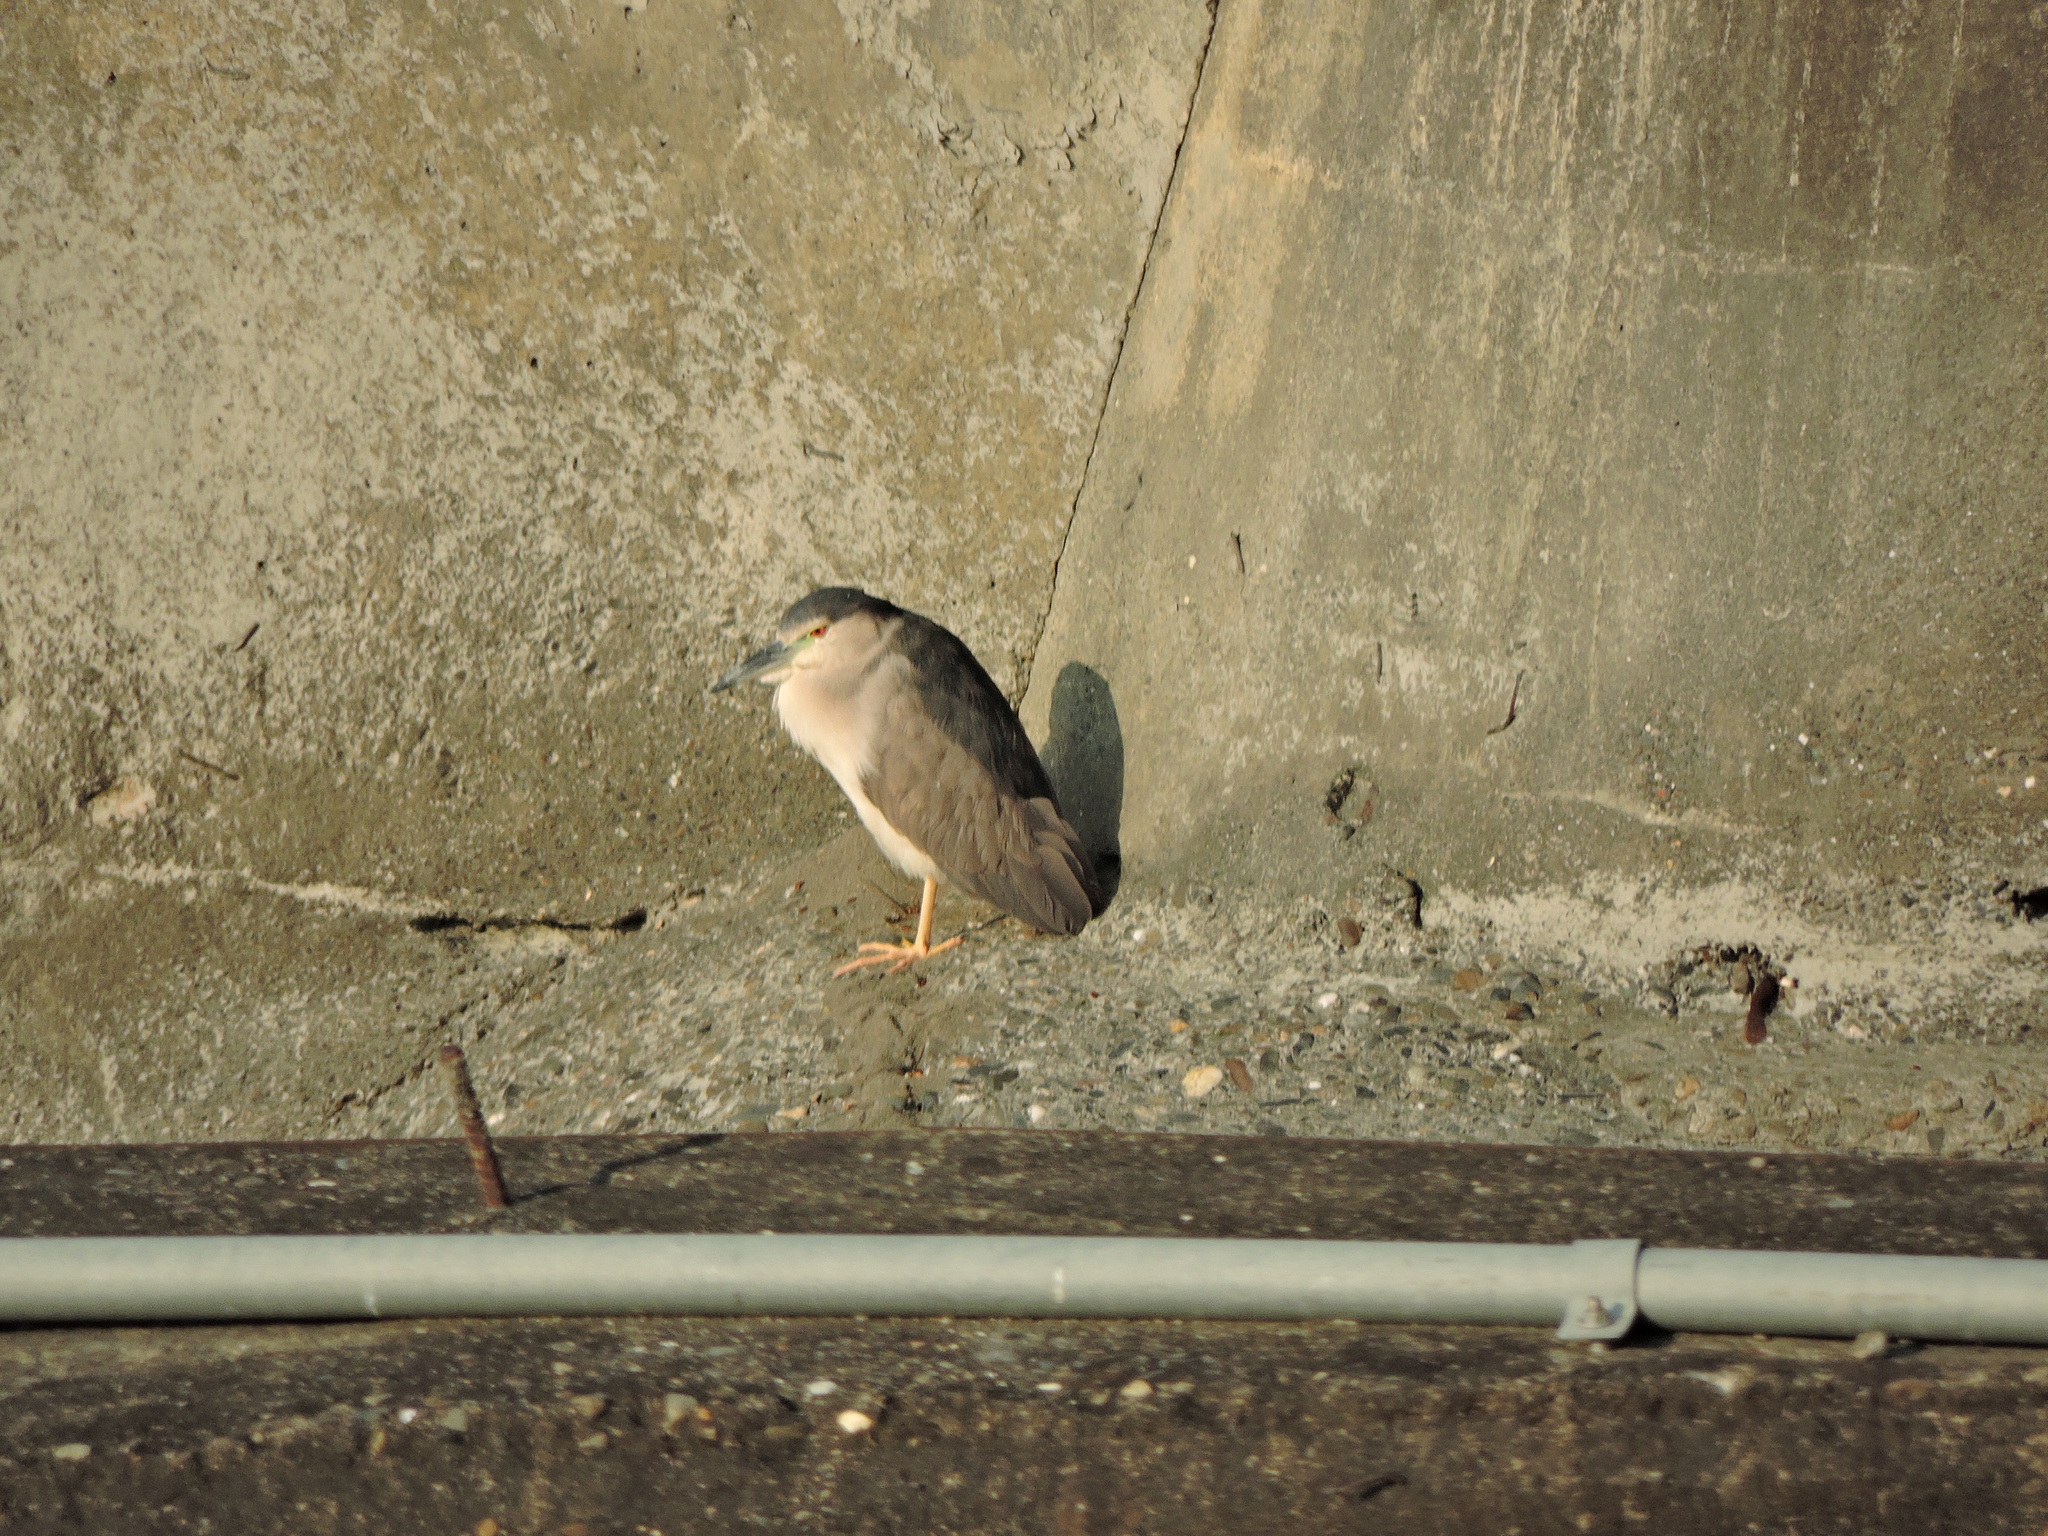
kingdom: Animalia
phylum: Chordata
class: Aves
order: Pelecaniformes
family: Ardeidae
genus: Nycticorax
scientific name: Nycticorax nycticorax
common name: Black-crowned night heron
